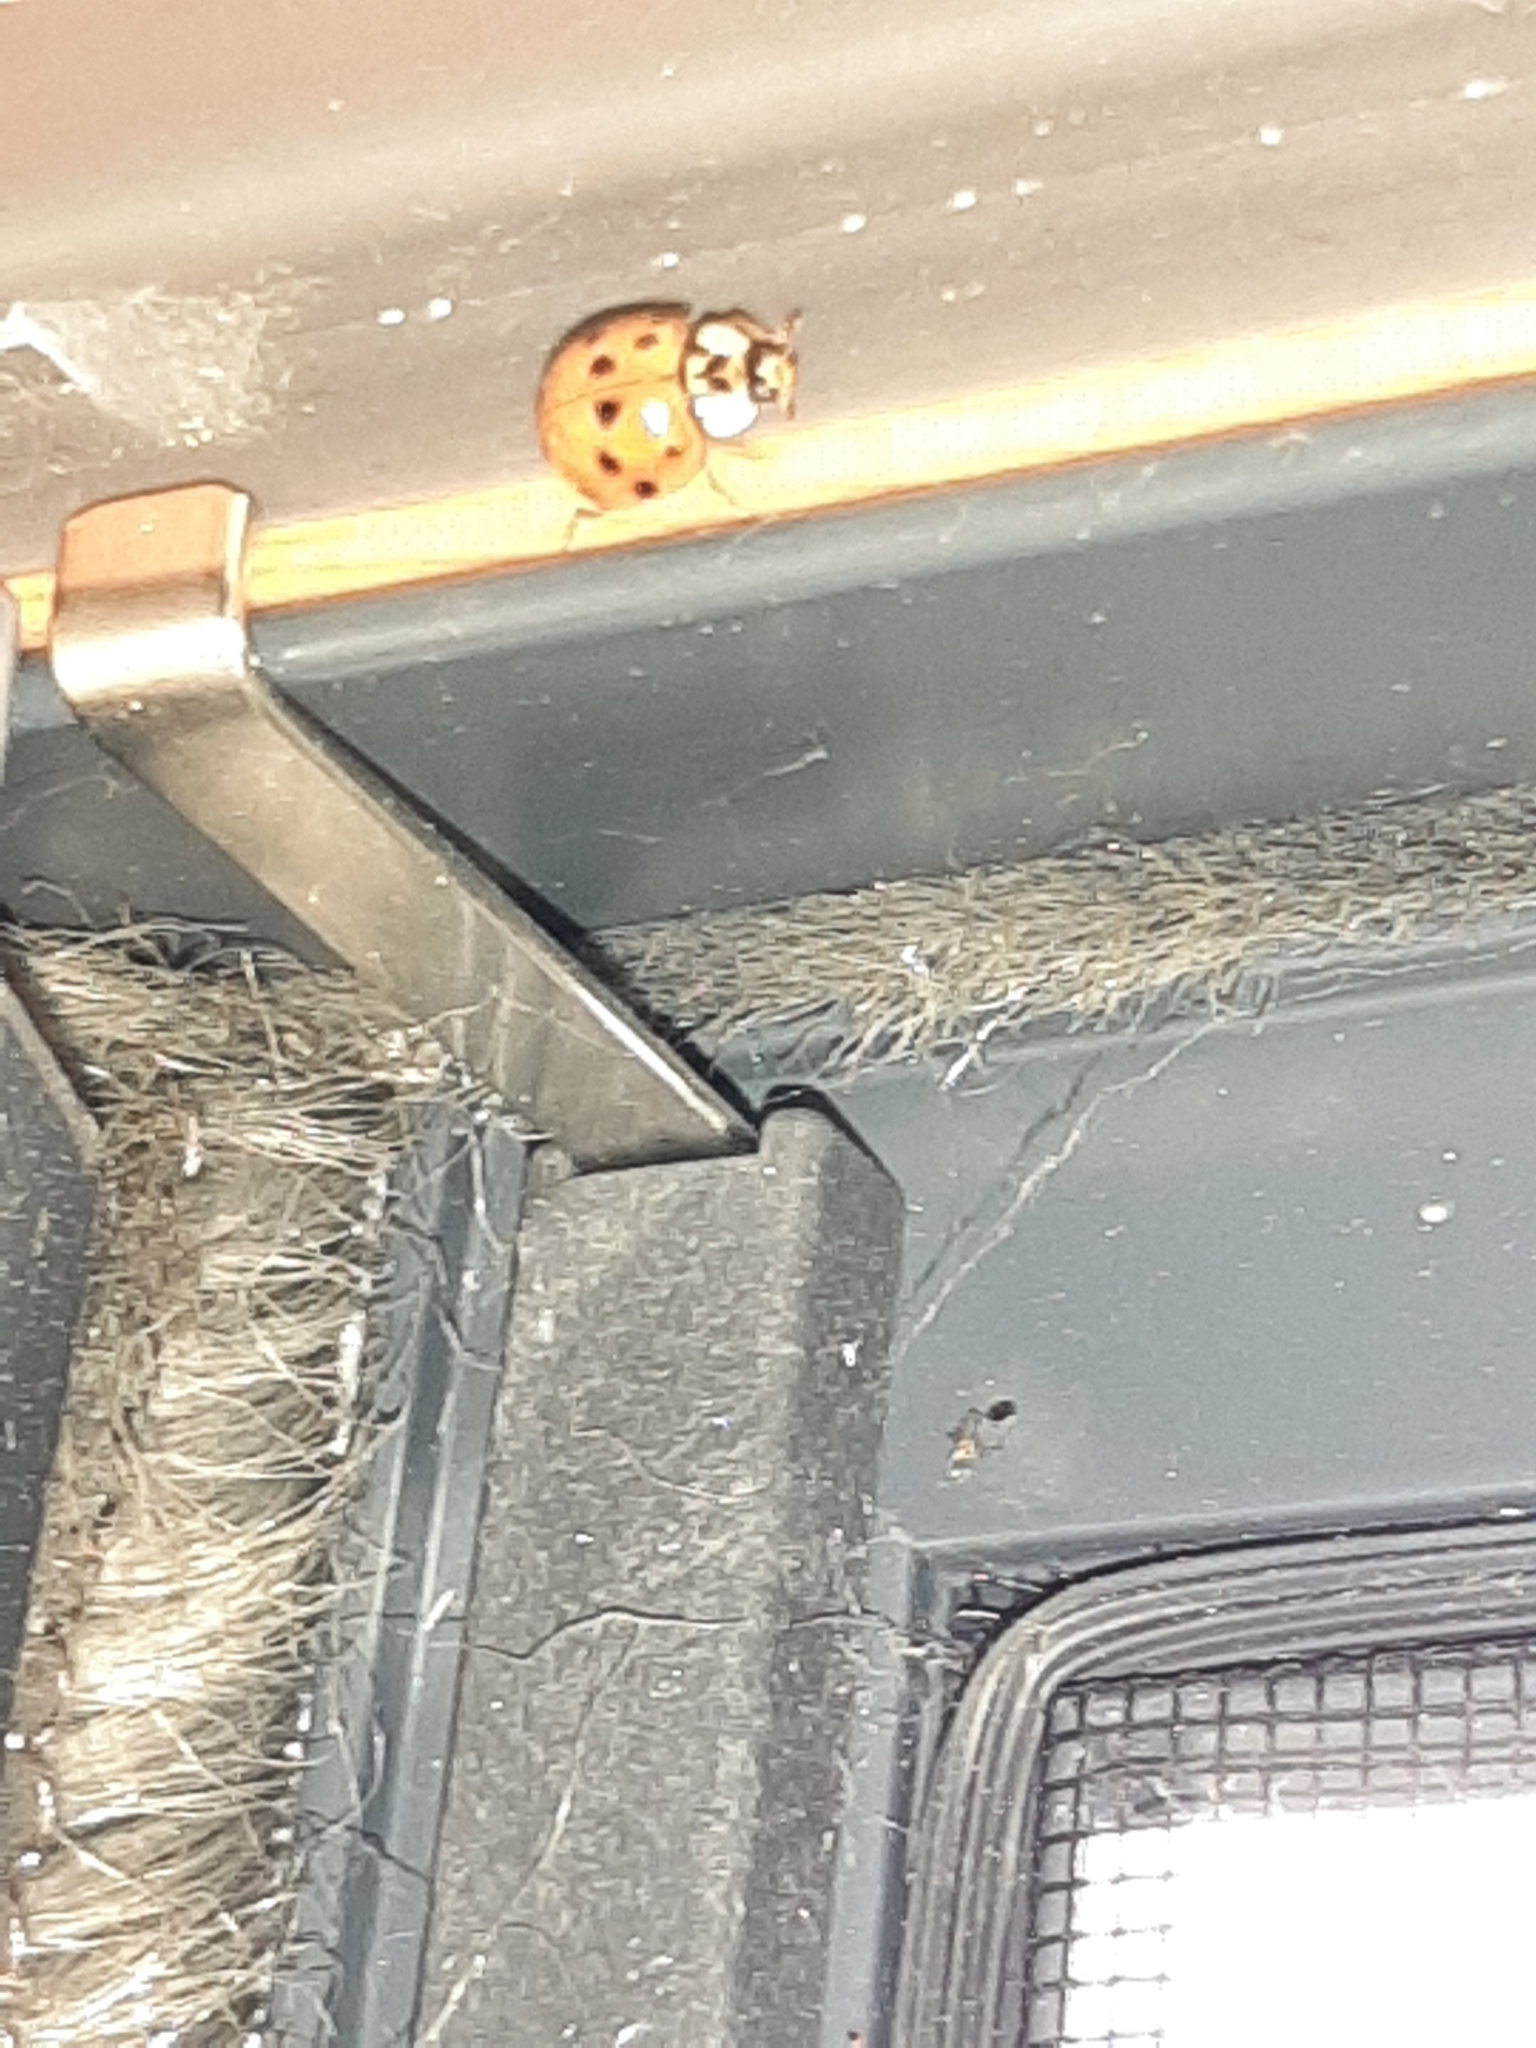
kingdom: Animalia
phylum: Arthropoda
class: Insecta
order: Coleoptera
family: Coccinellidae
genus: Harmonia
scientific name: Harmonia axyridis
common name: Harlequin ladybird
